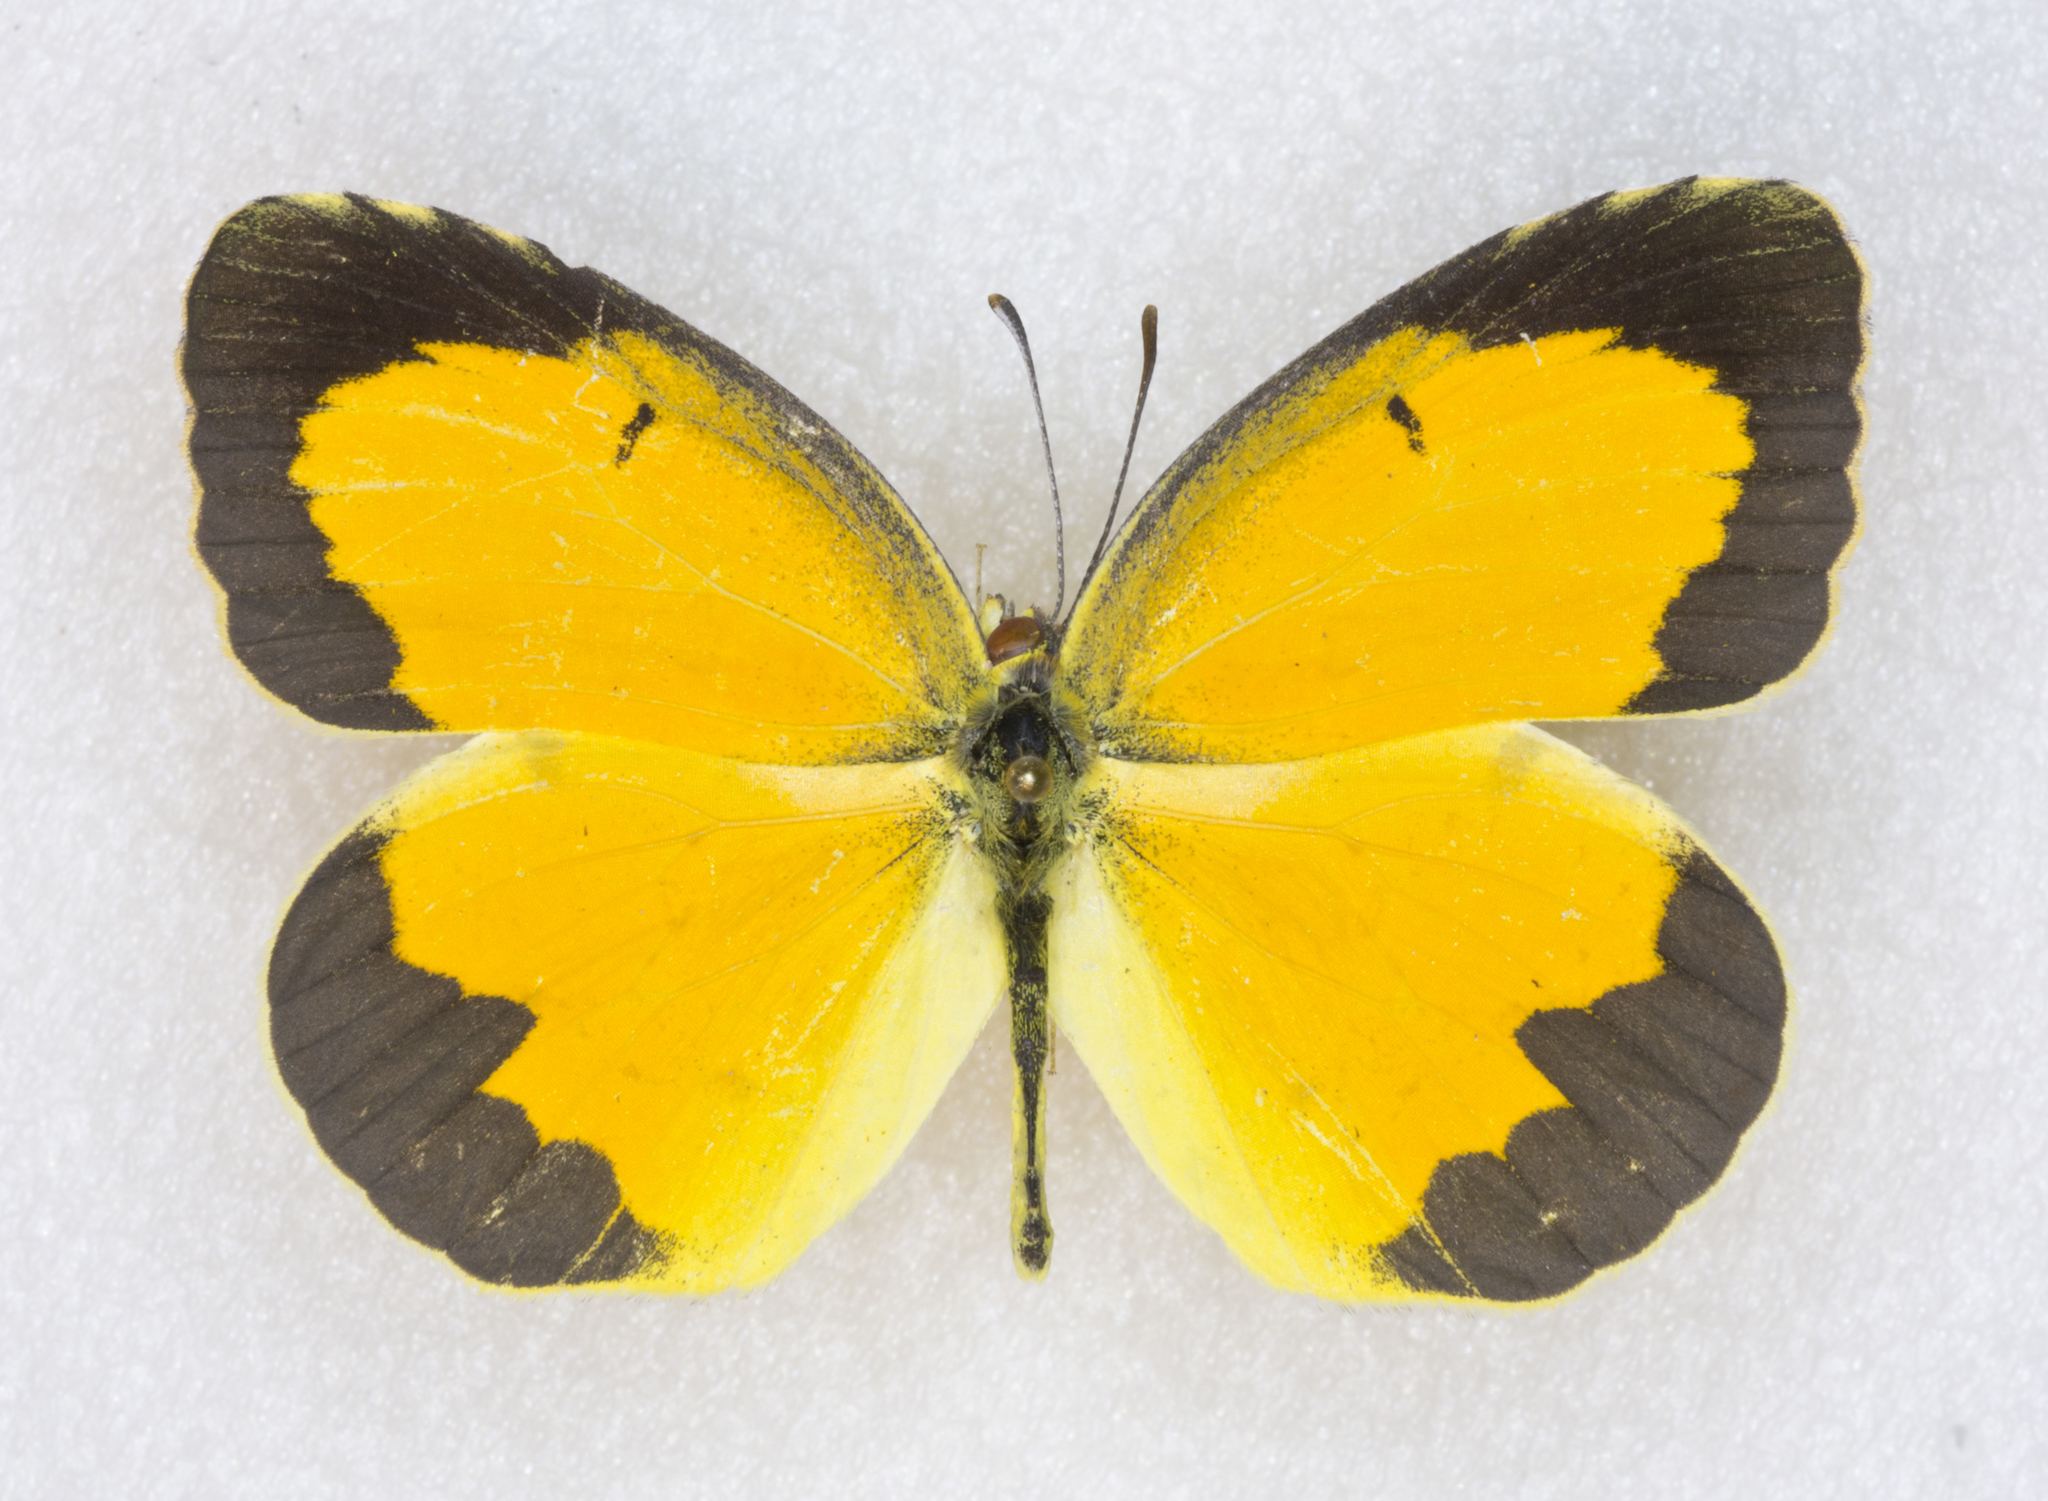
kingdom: Animalia
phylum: Arthropoda
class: Insecta
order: Lepidoptera
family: Pieridae
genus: Abaeis
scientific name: Abaeis nicippe
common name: Sleepy orange
